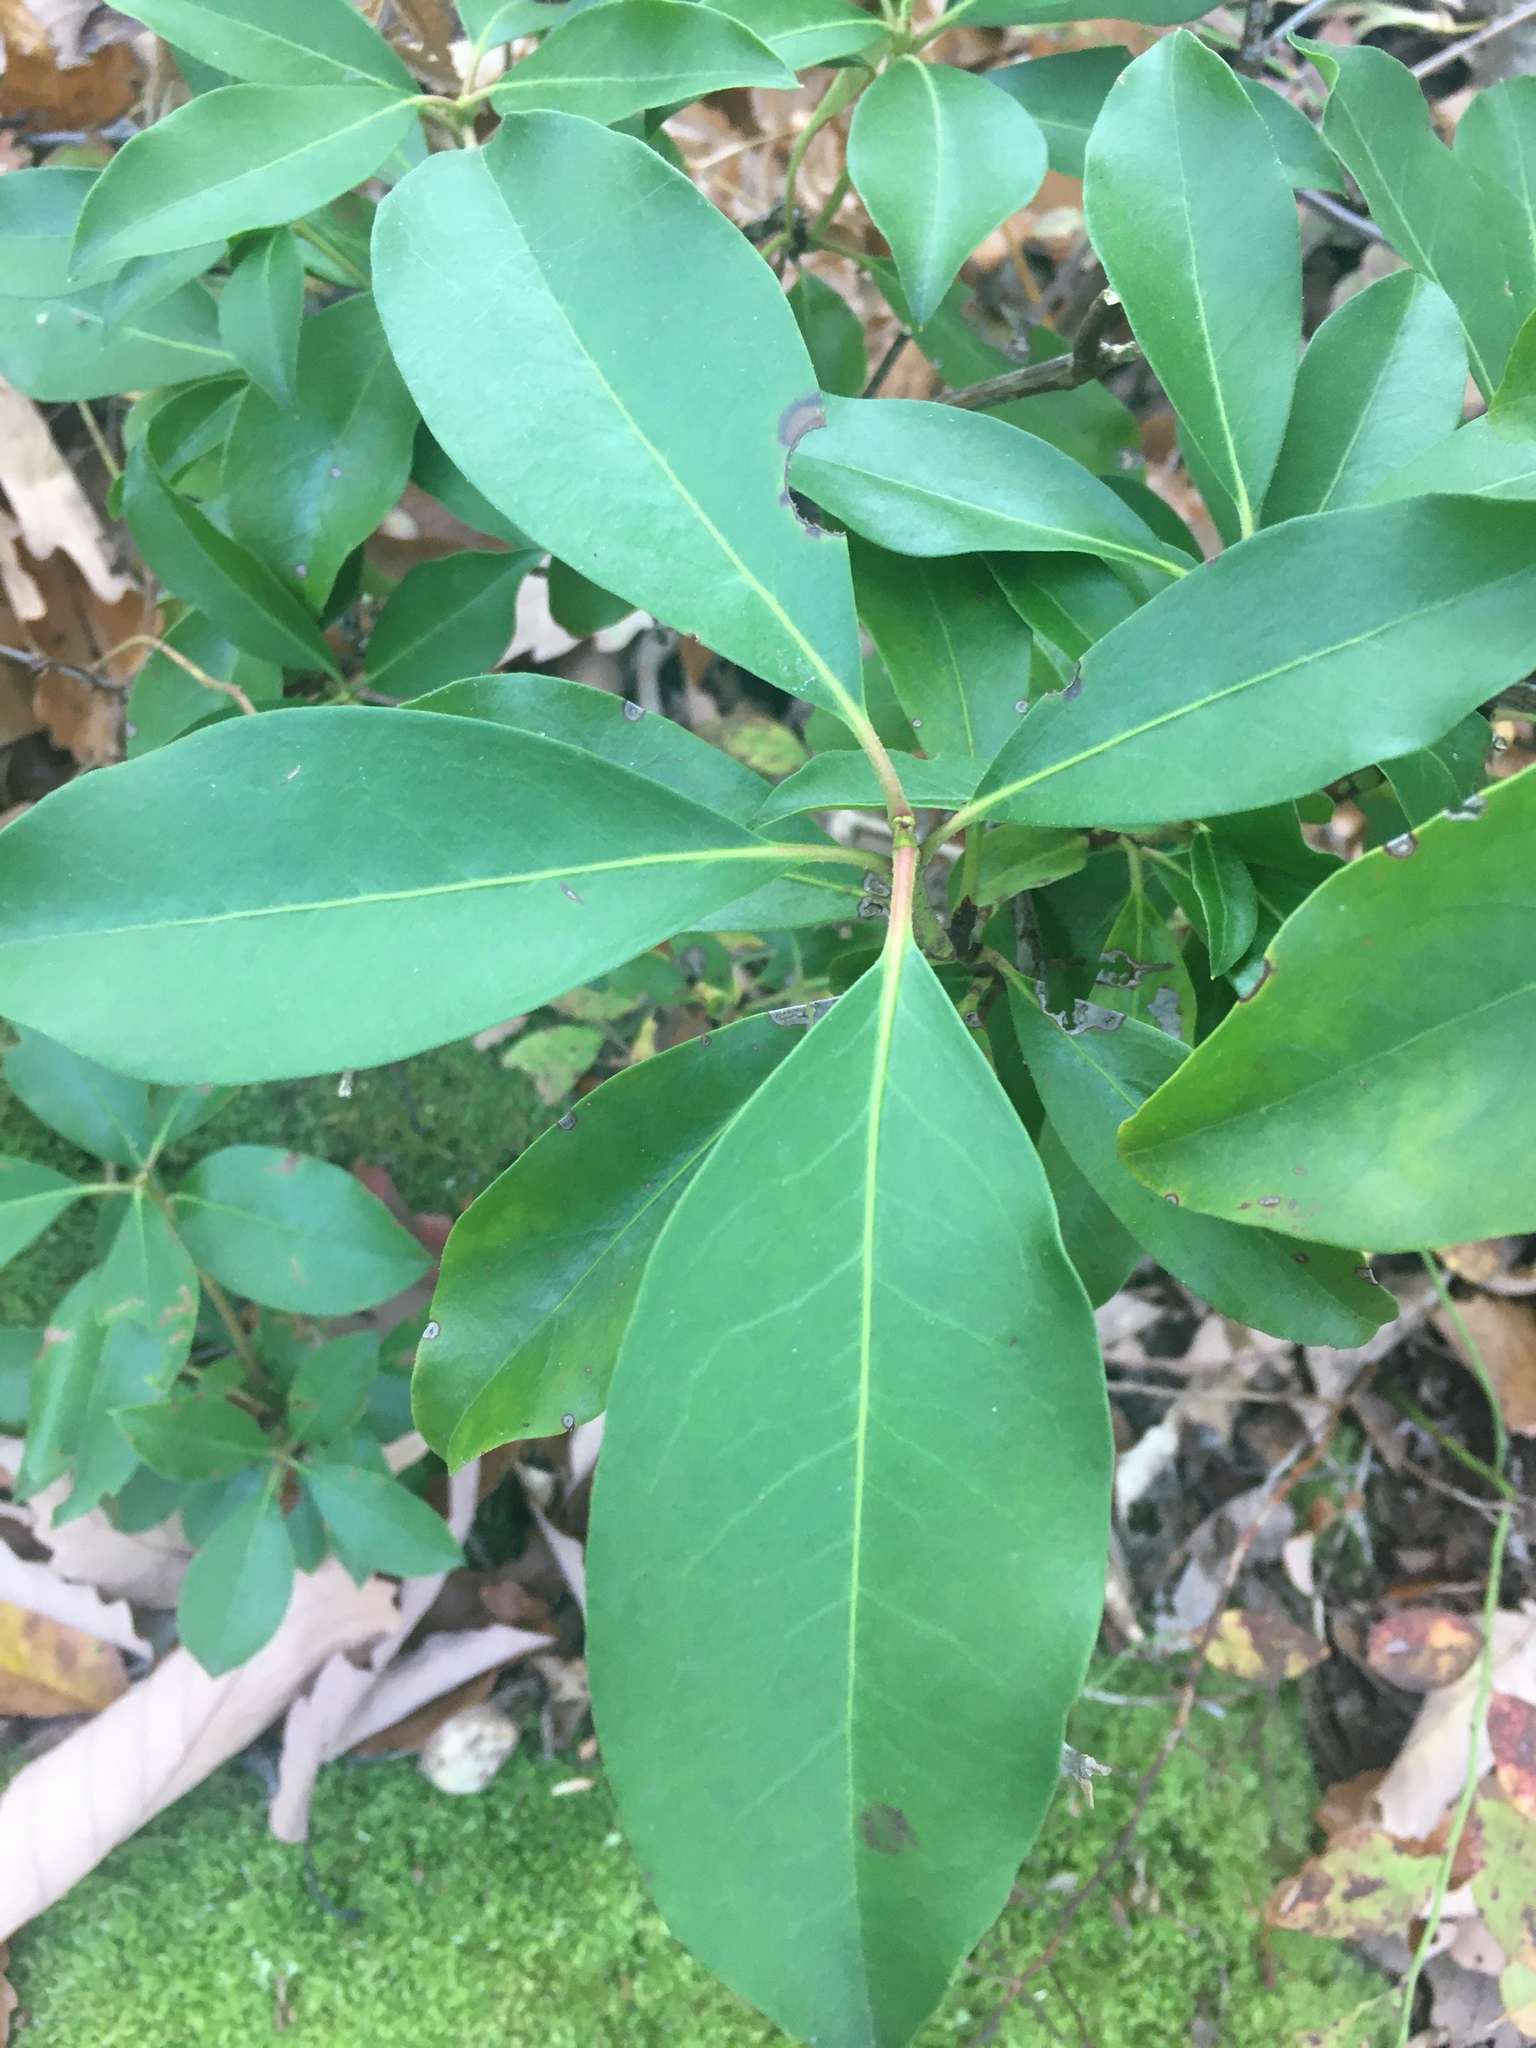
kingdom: Plantae
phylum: Tracheophyta
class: Magnoliopsida
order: Ericales
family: Ericaceae
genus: Kalmia
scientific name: Kalmia latifolia
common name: Mountain-laurel
